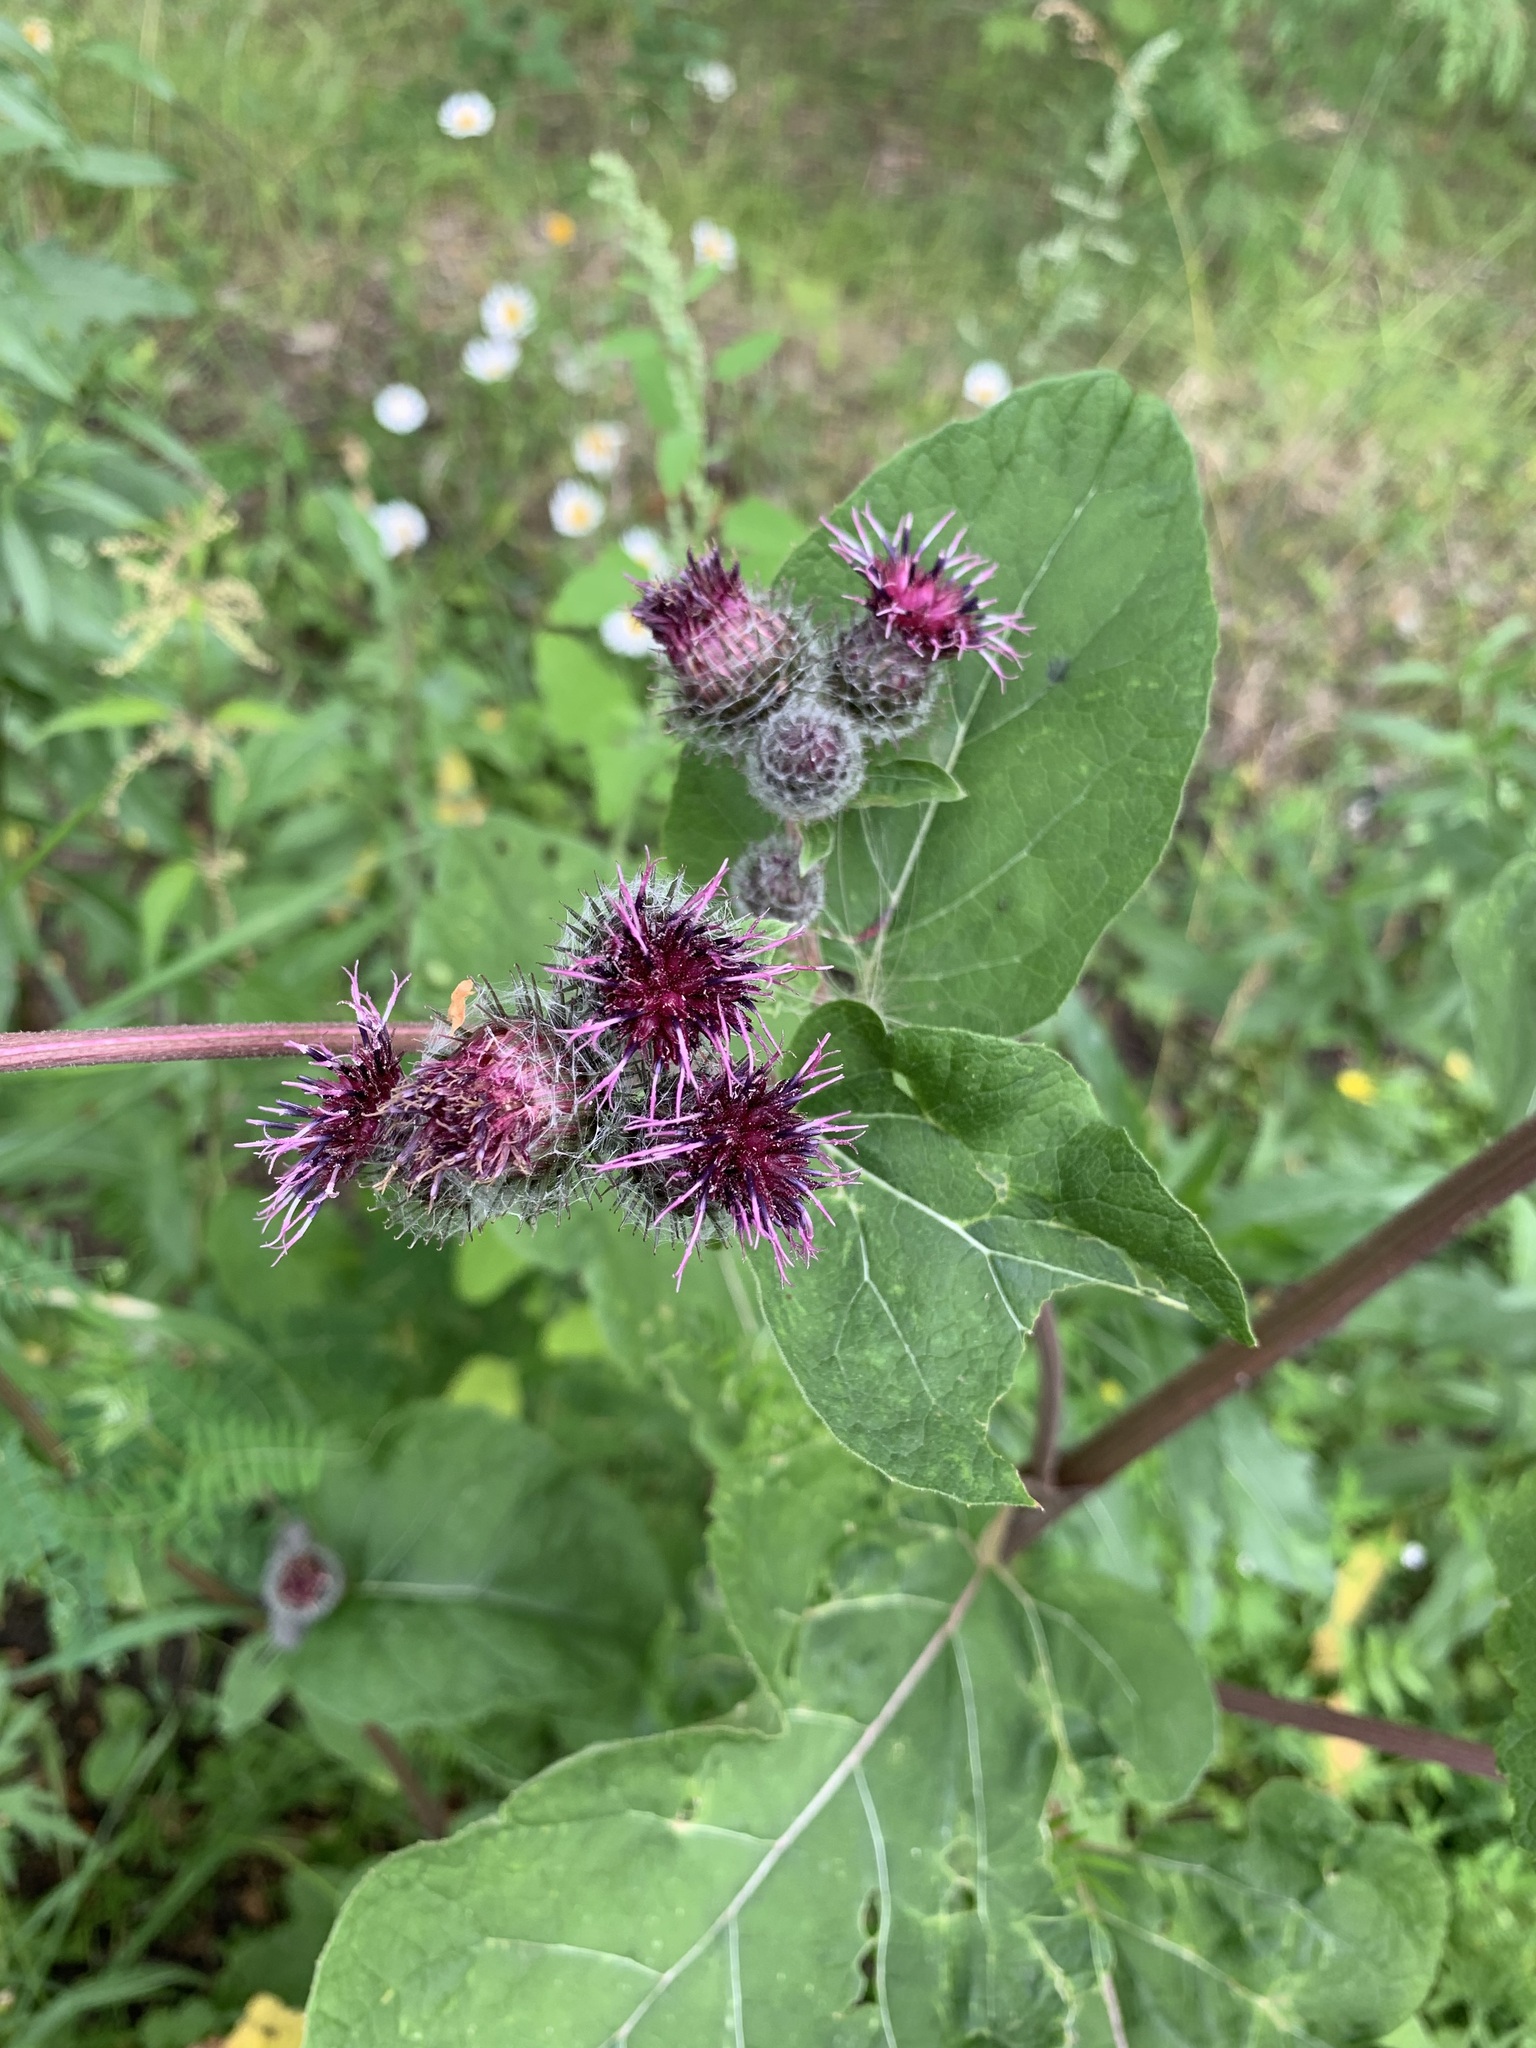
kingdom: Plantae
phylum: Tracheophyta
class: Magnoliopsida
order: Asterales
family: Asteraceae
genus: Arctium
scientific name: Arctium tomentosum
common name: Woolly burdock
